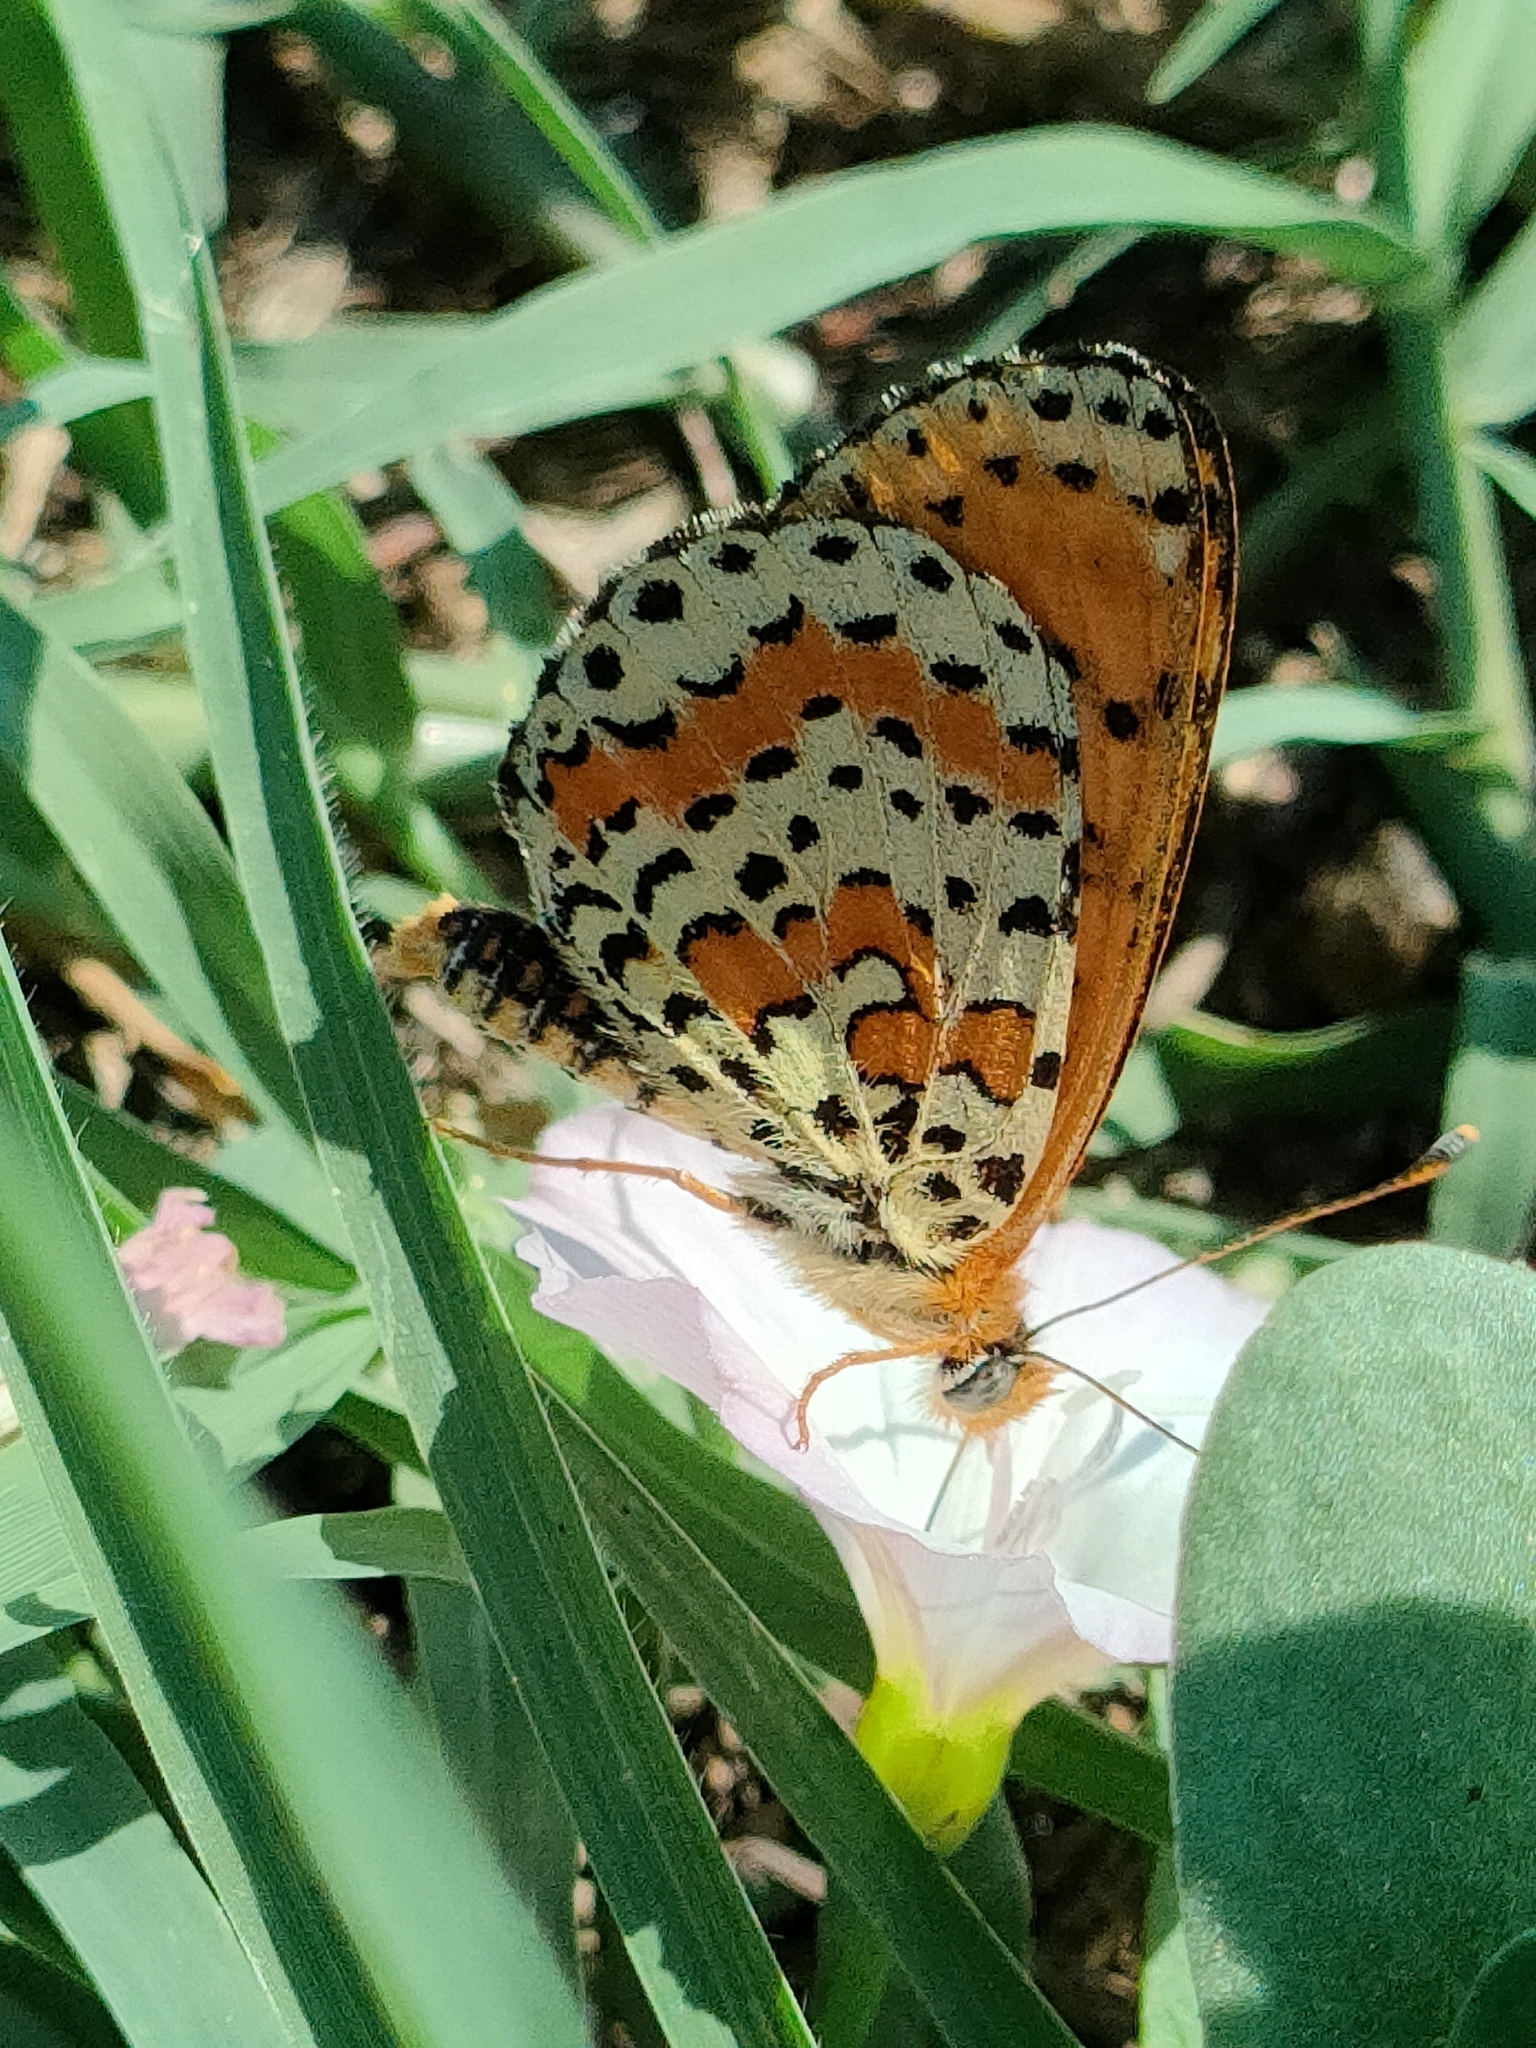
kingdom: Animalia
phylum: Arthropoda
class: Insecta
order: Lepidoptera
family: Nymphalidae
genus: Melitaea
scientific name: Melitaea didyma
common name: Spotted fritillary
